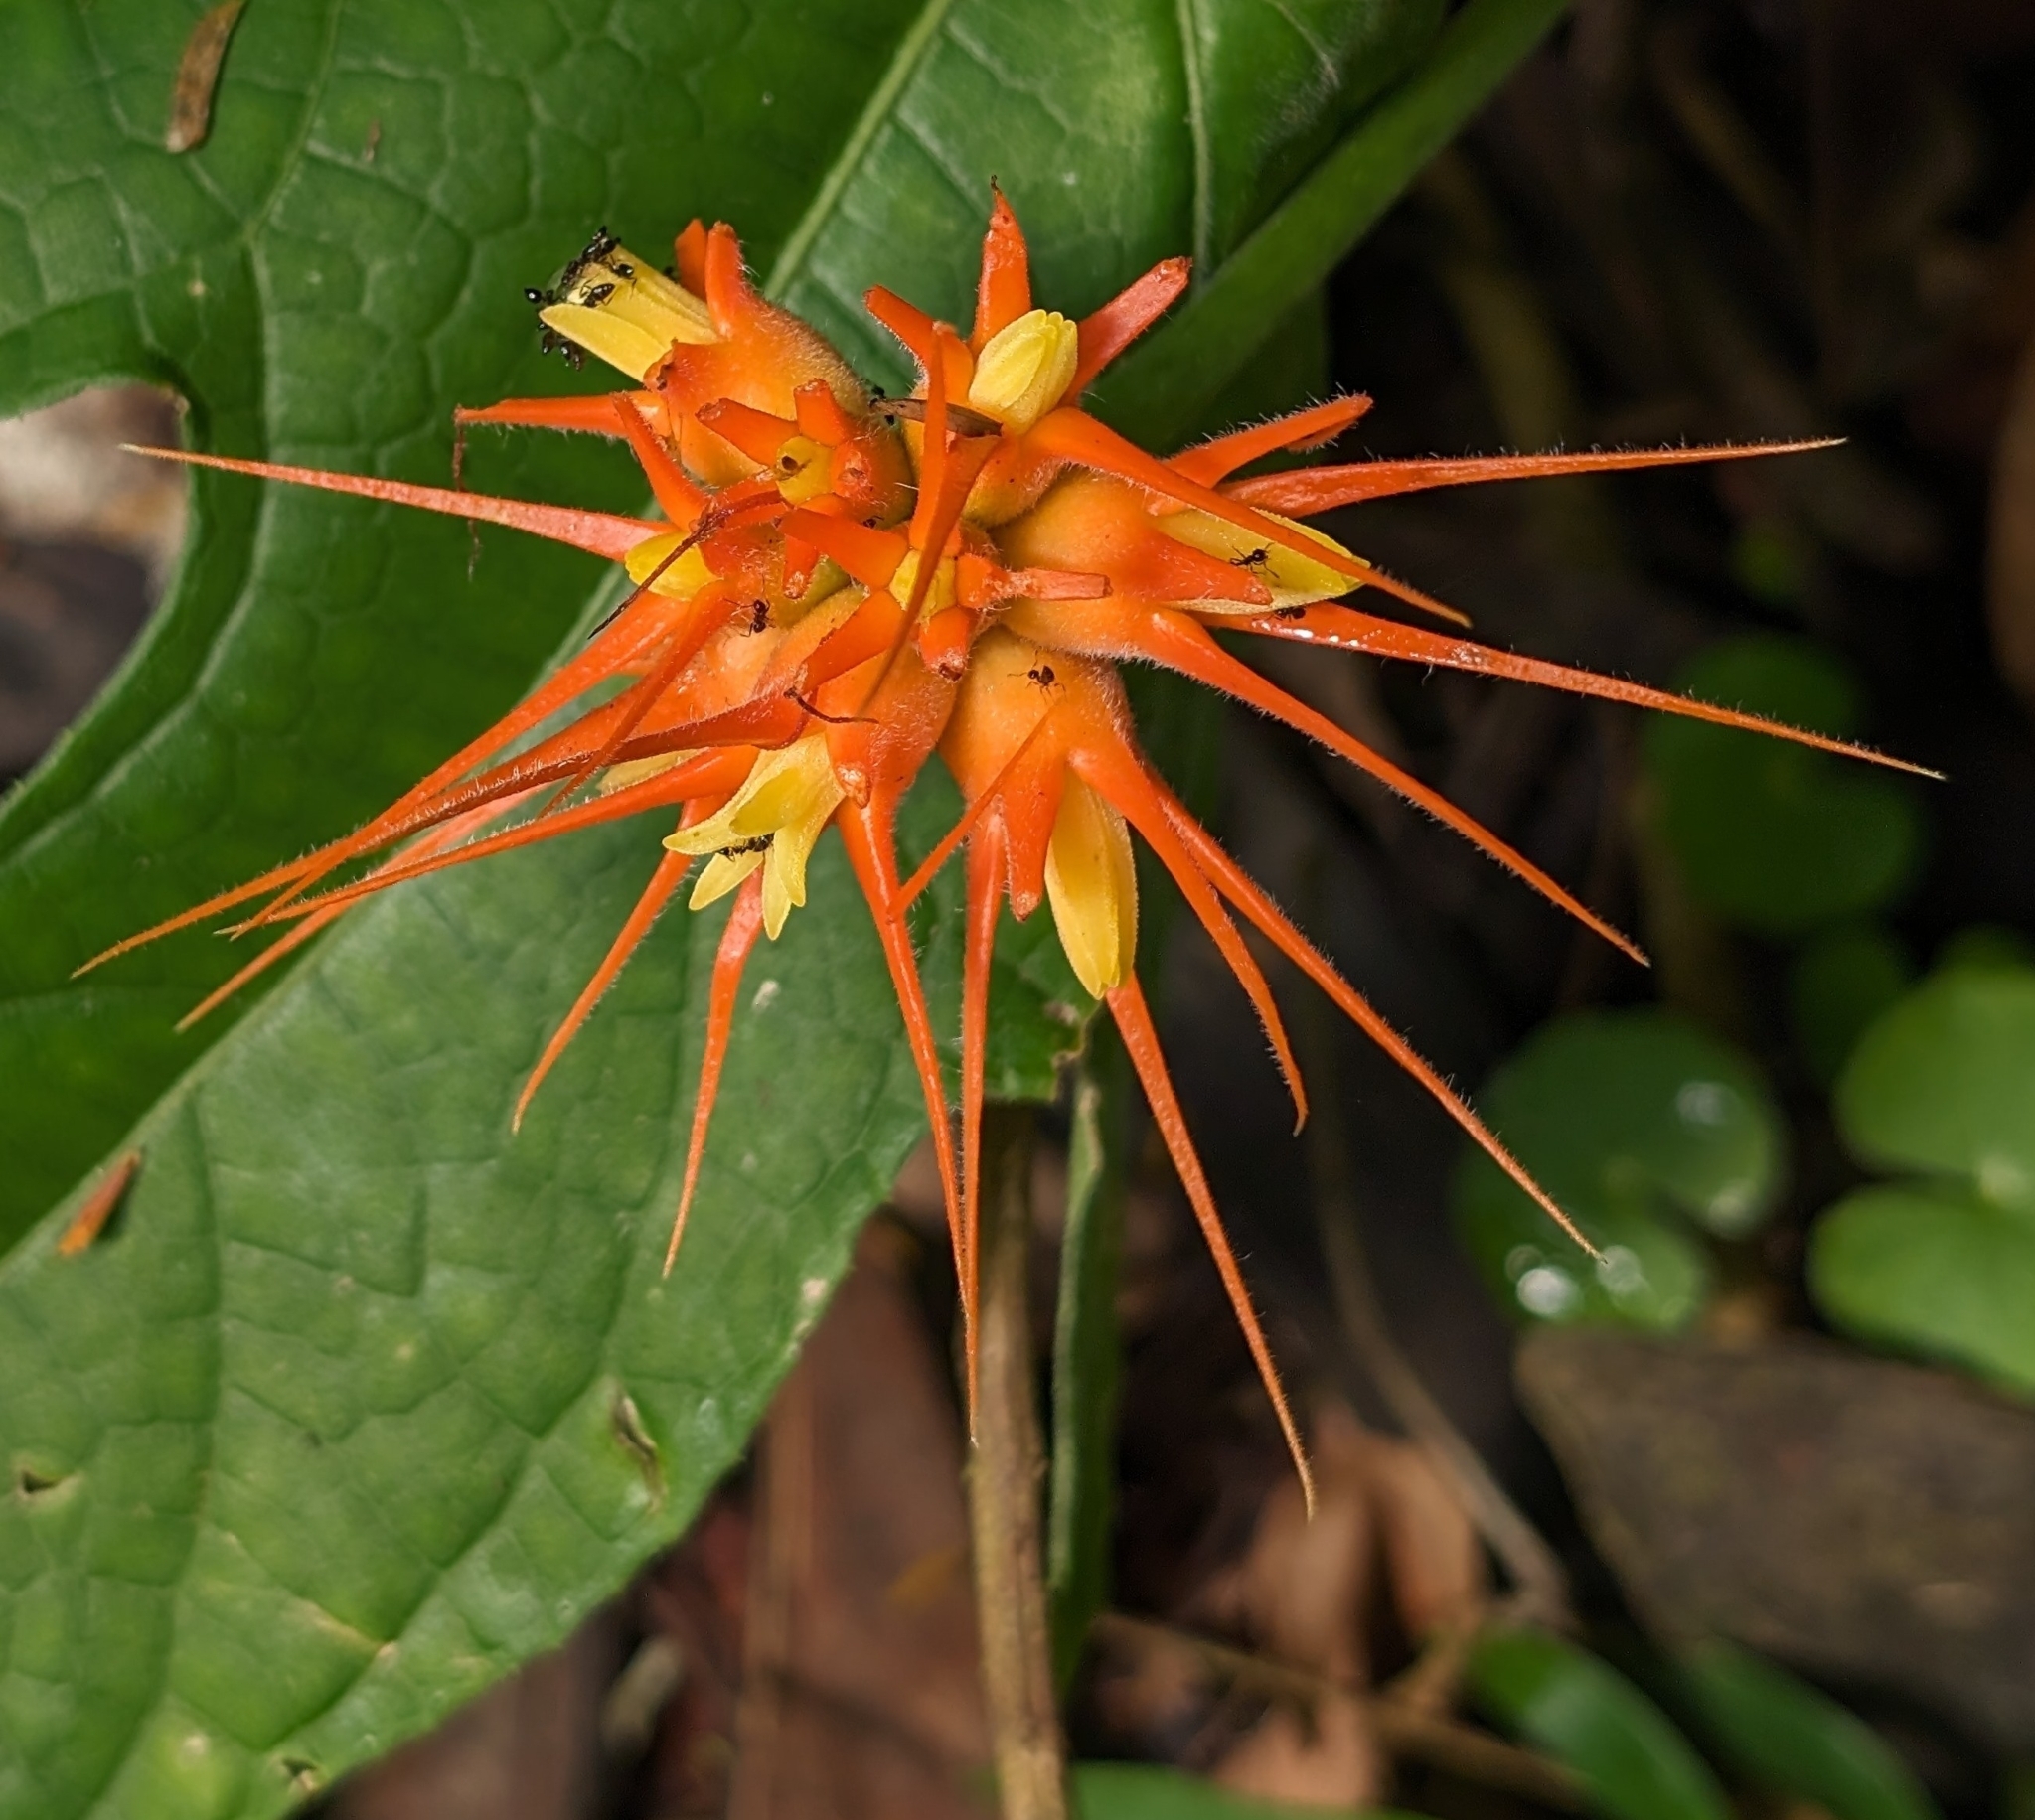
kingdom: Plantae
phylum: Tracheophyta
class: Magnoliopsida
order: Cucurbitales
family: Cucurbitaceae
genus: Gurania
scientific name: Gurania makoyana
